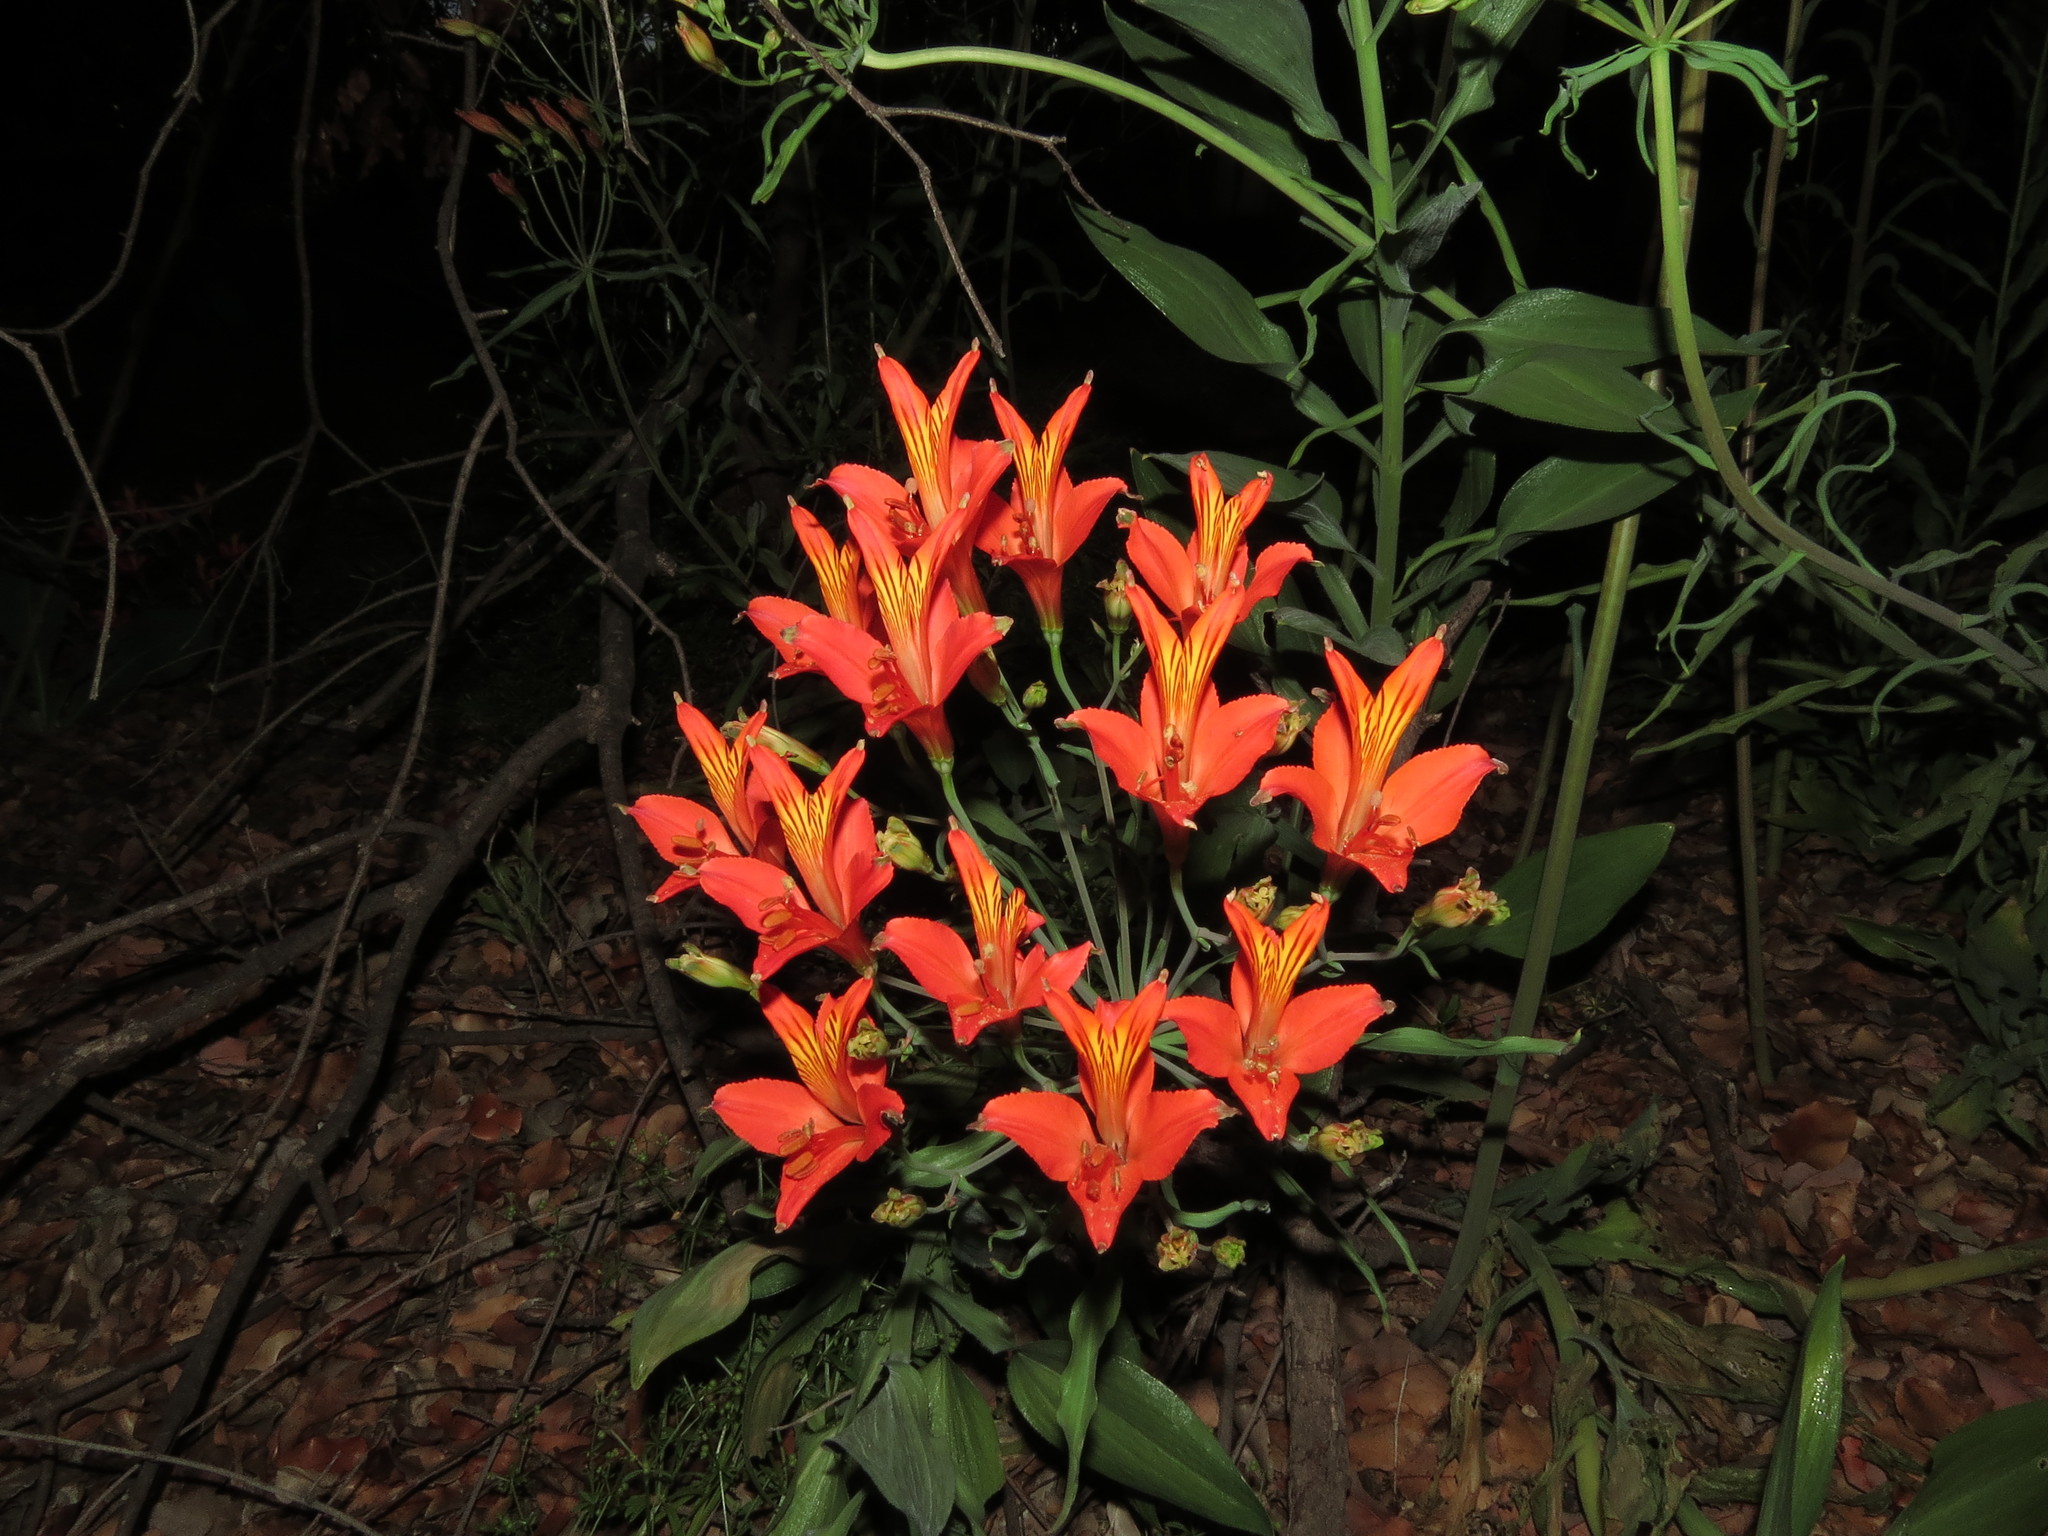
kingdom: Plantae
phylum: Tracheophyta
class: Liliopsida
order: Liliales
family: Alstroemeriaceae
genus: Alstroemeria
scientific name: Alstroemeria ligtu
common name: St. martin's-flower
